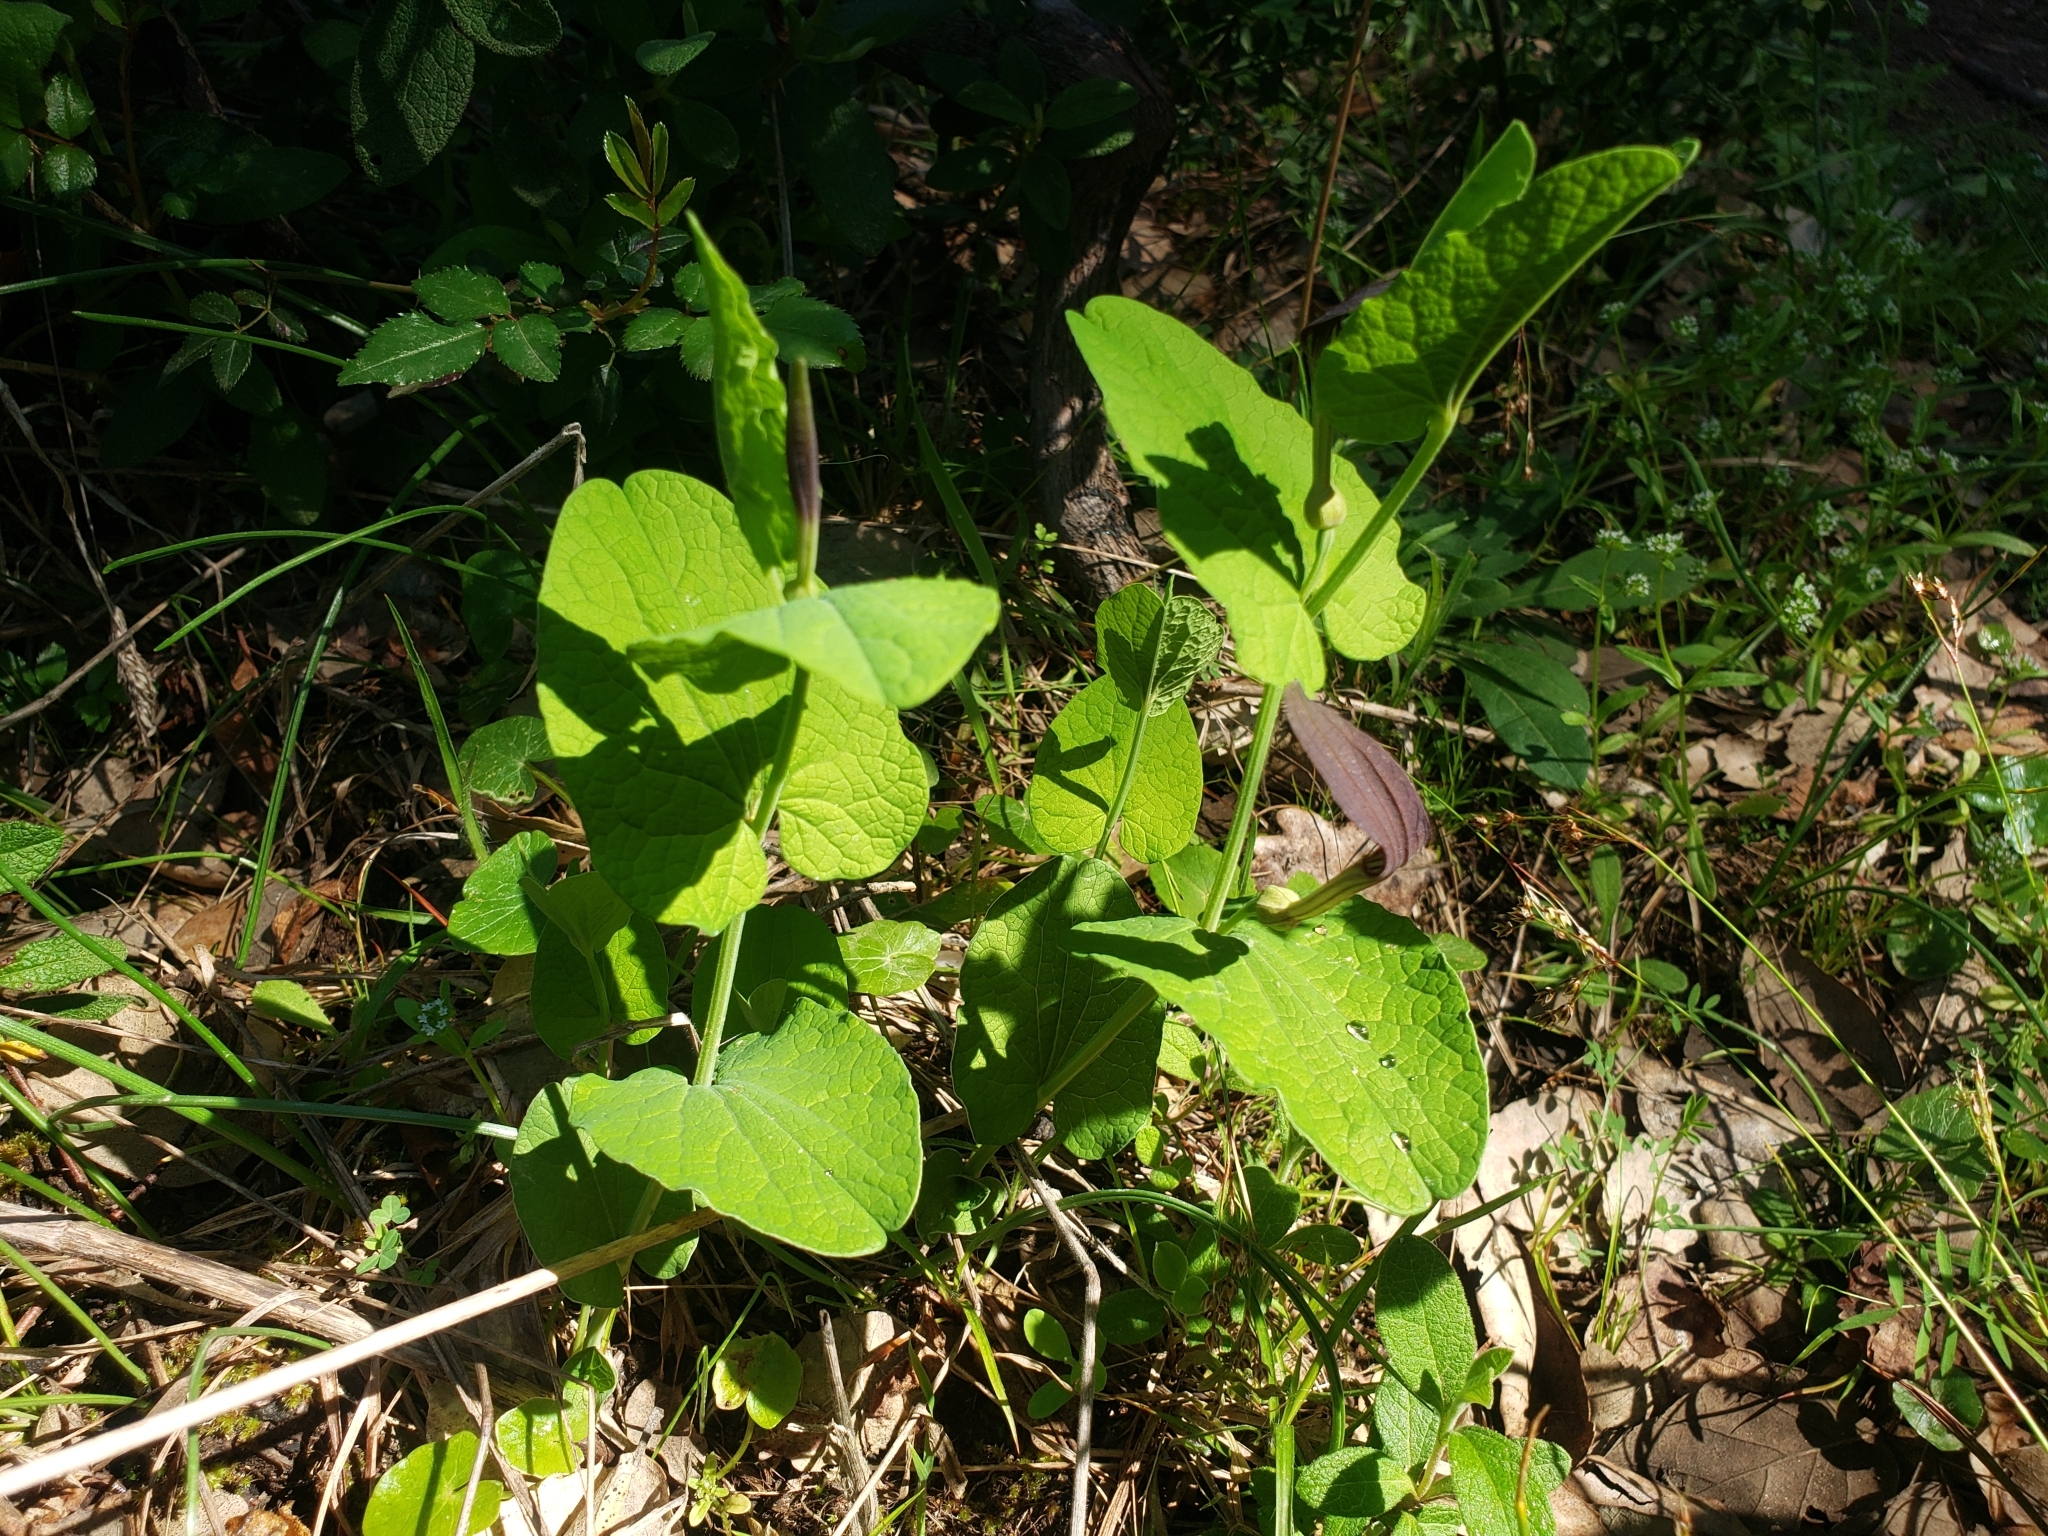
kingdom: Plantae
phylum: Tracheophyta
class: Magnoliopsida
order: Piperales
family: Aristolochiaceae
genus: Aristolochia
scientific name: Aristolochia rotunda
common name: Smearwort
